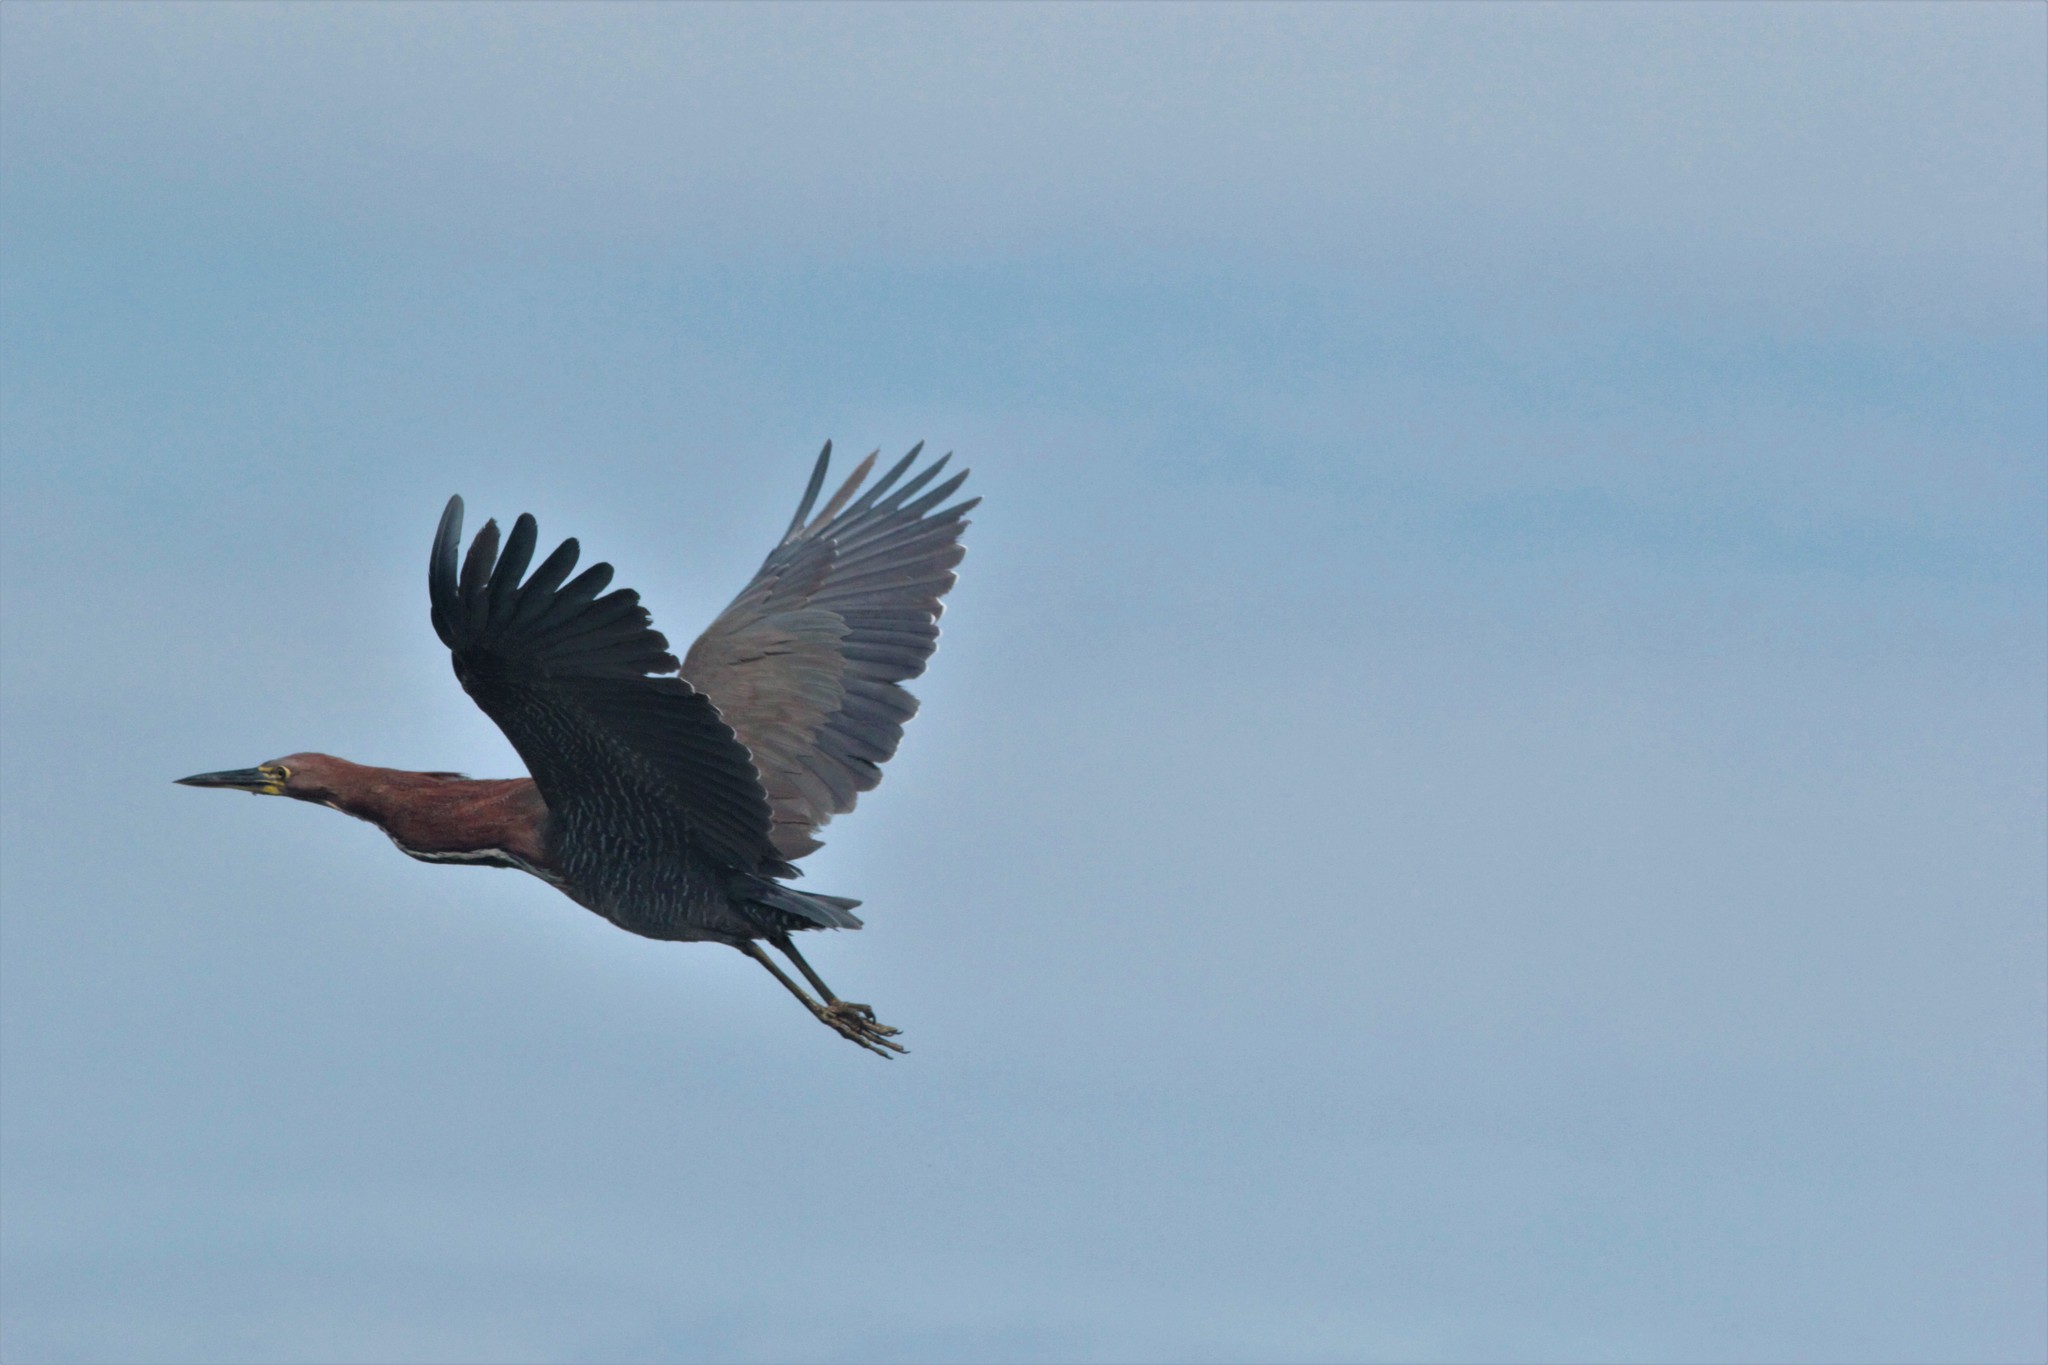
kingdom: Animalia
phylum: Chordata
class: Aves
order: Pelecaniformes
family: Ardeidae
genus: Tigrisoma
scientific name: Tigrisoma lineatum
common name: Rufescent tiger-heron
